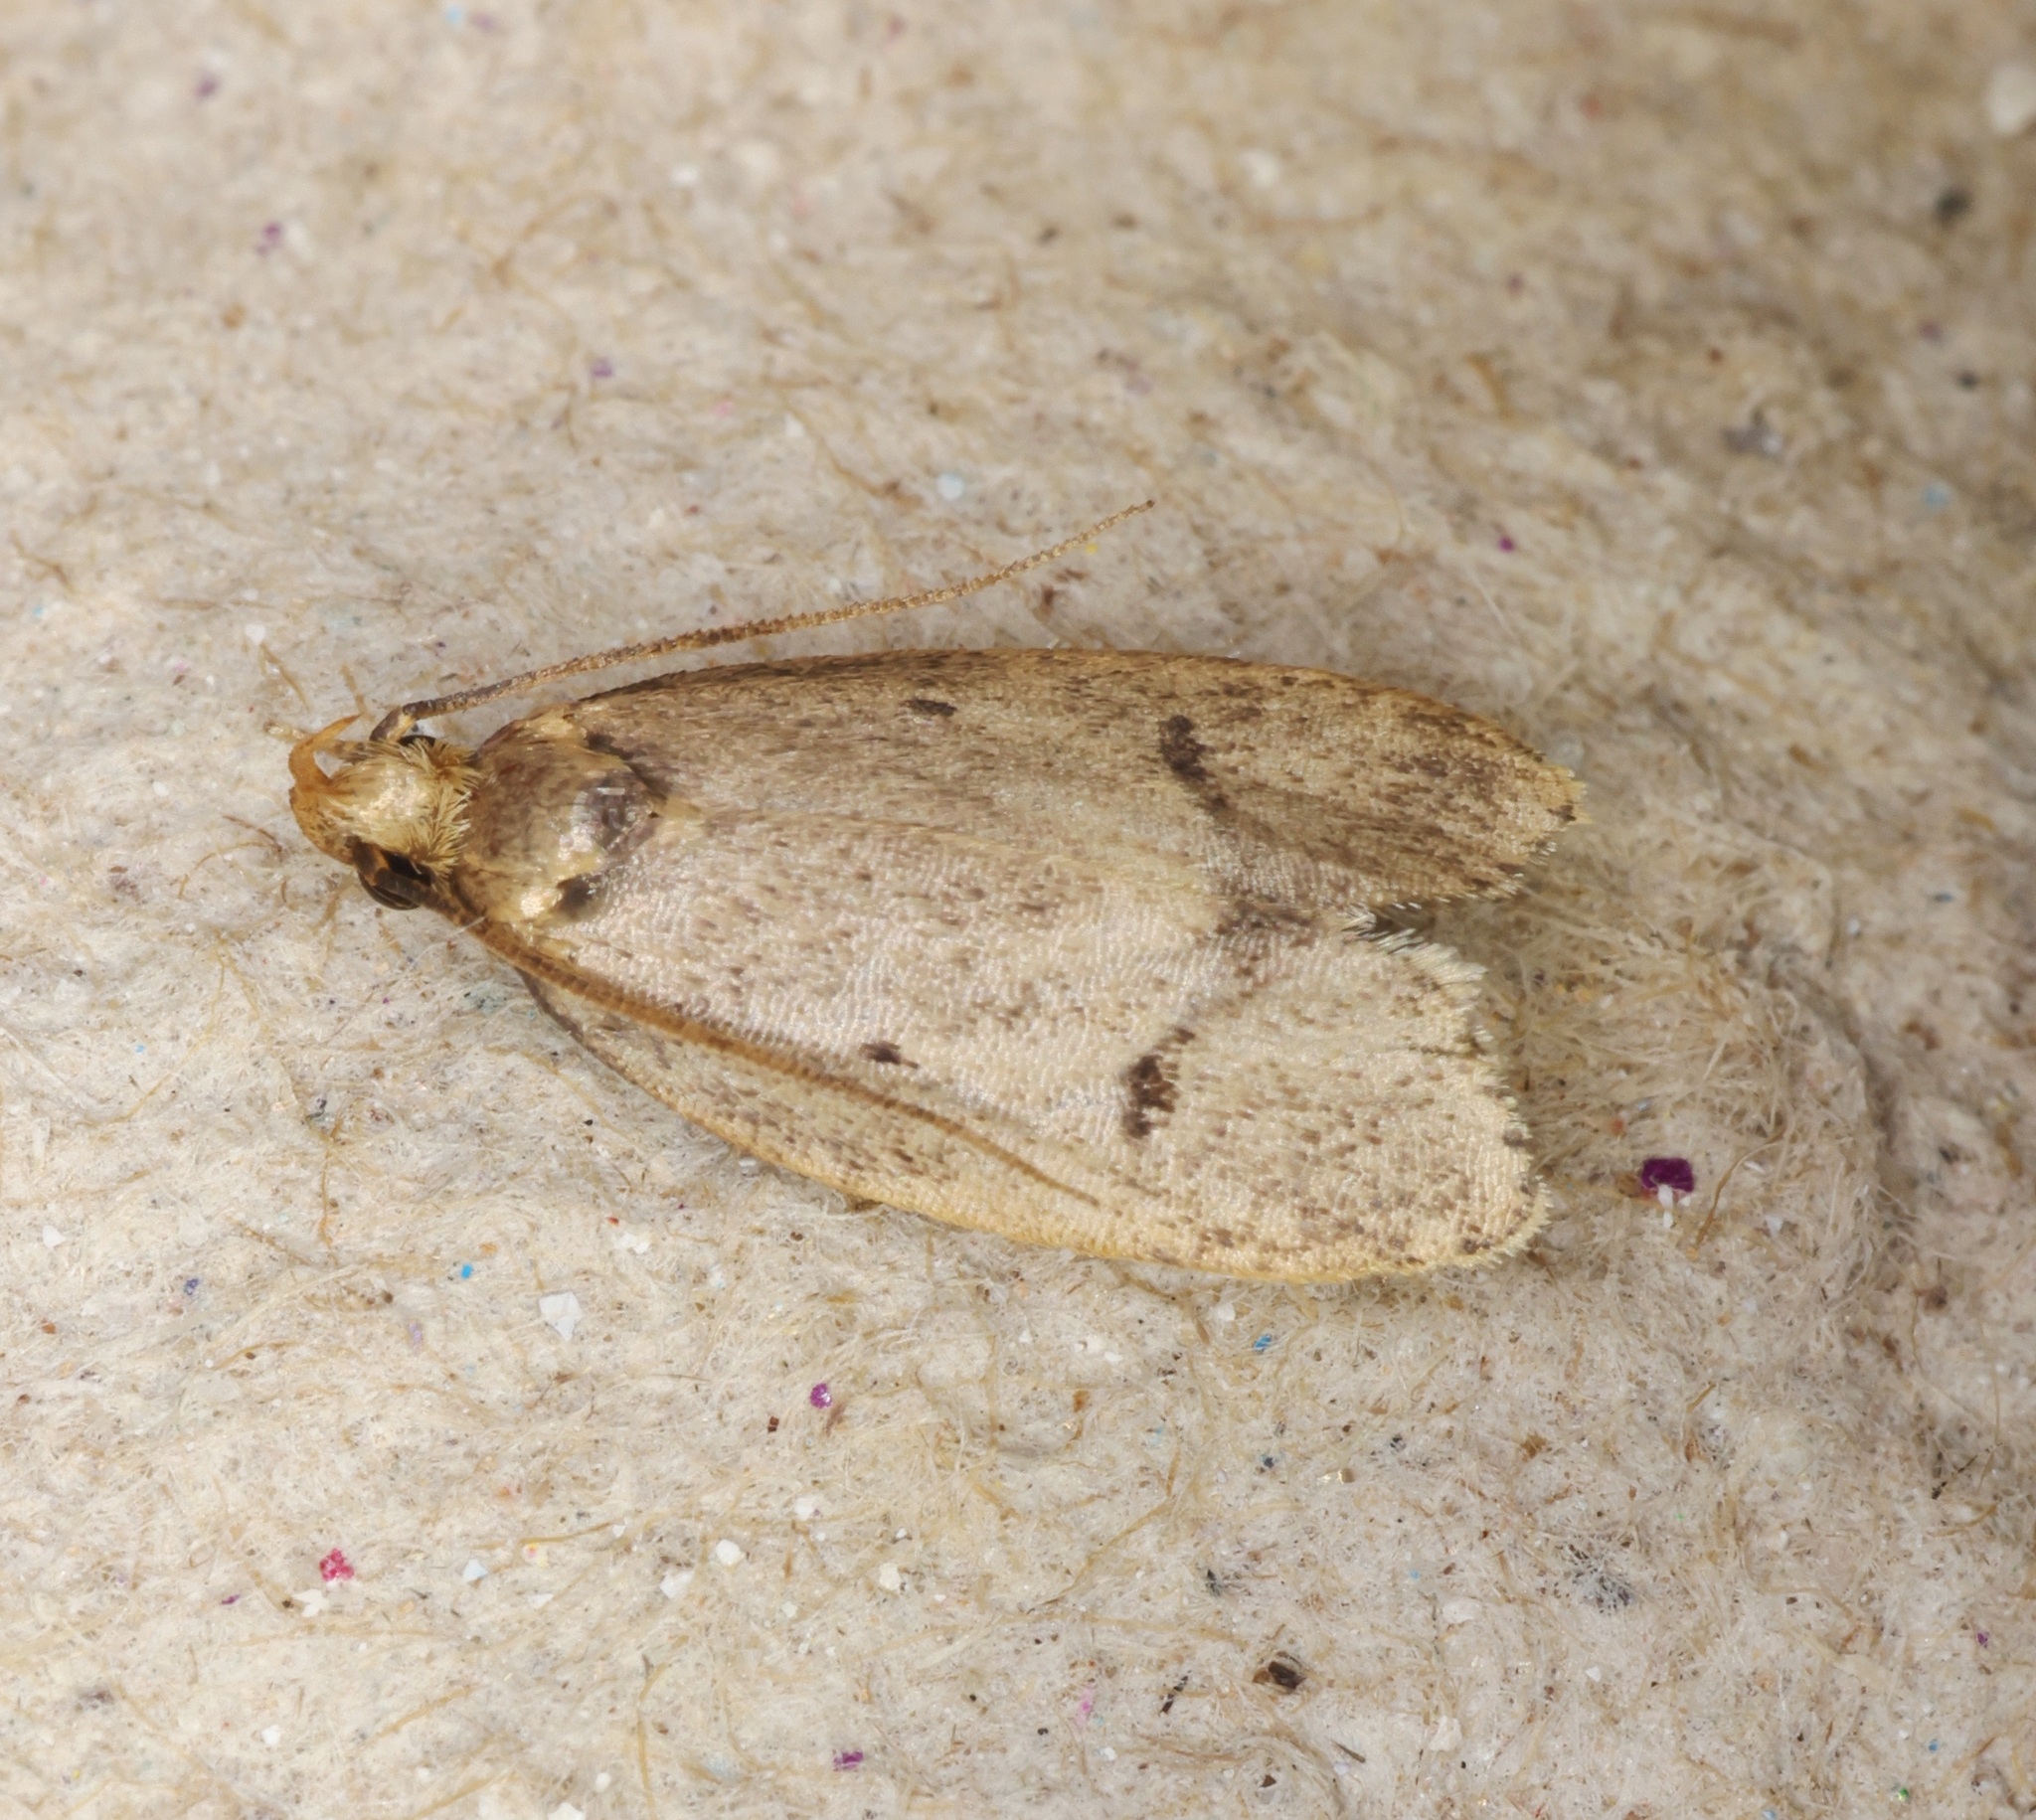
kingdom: Animalia
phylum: Arthropoda
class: Insecta
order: Lepidoptera
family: Autostichidae
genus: Phaulolechia
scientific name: Phaulolechia
